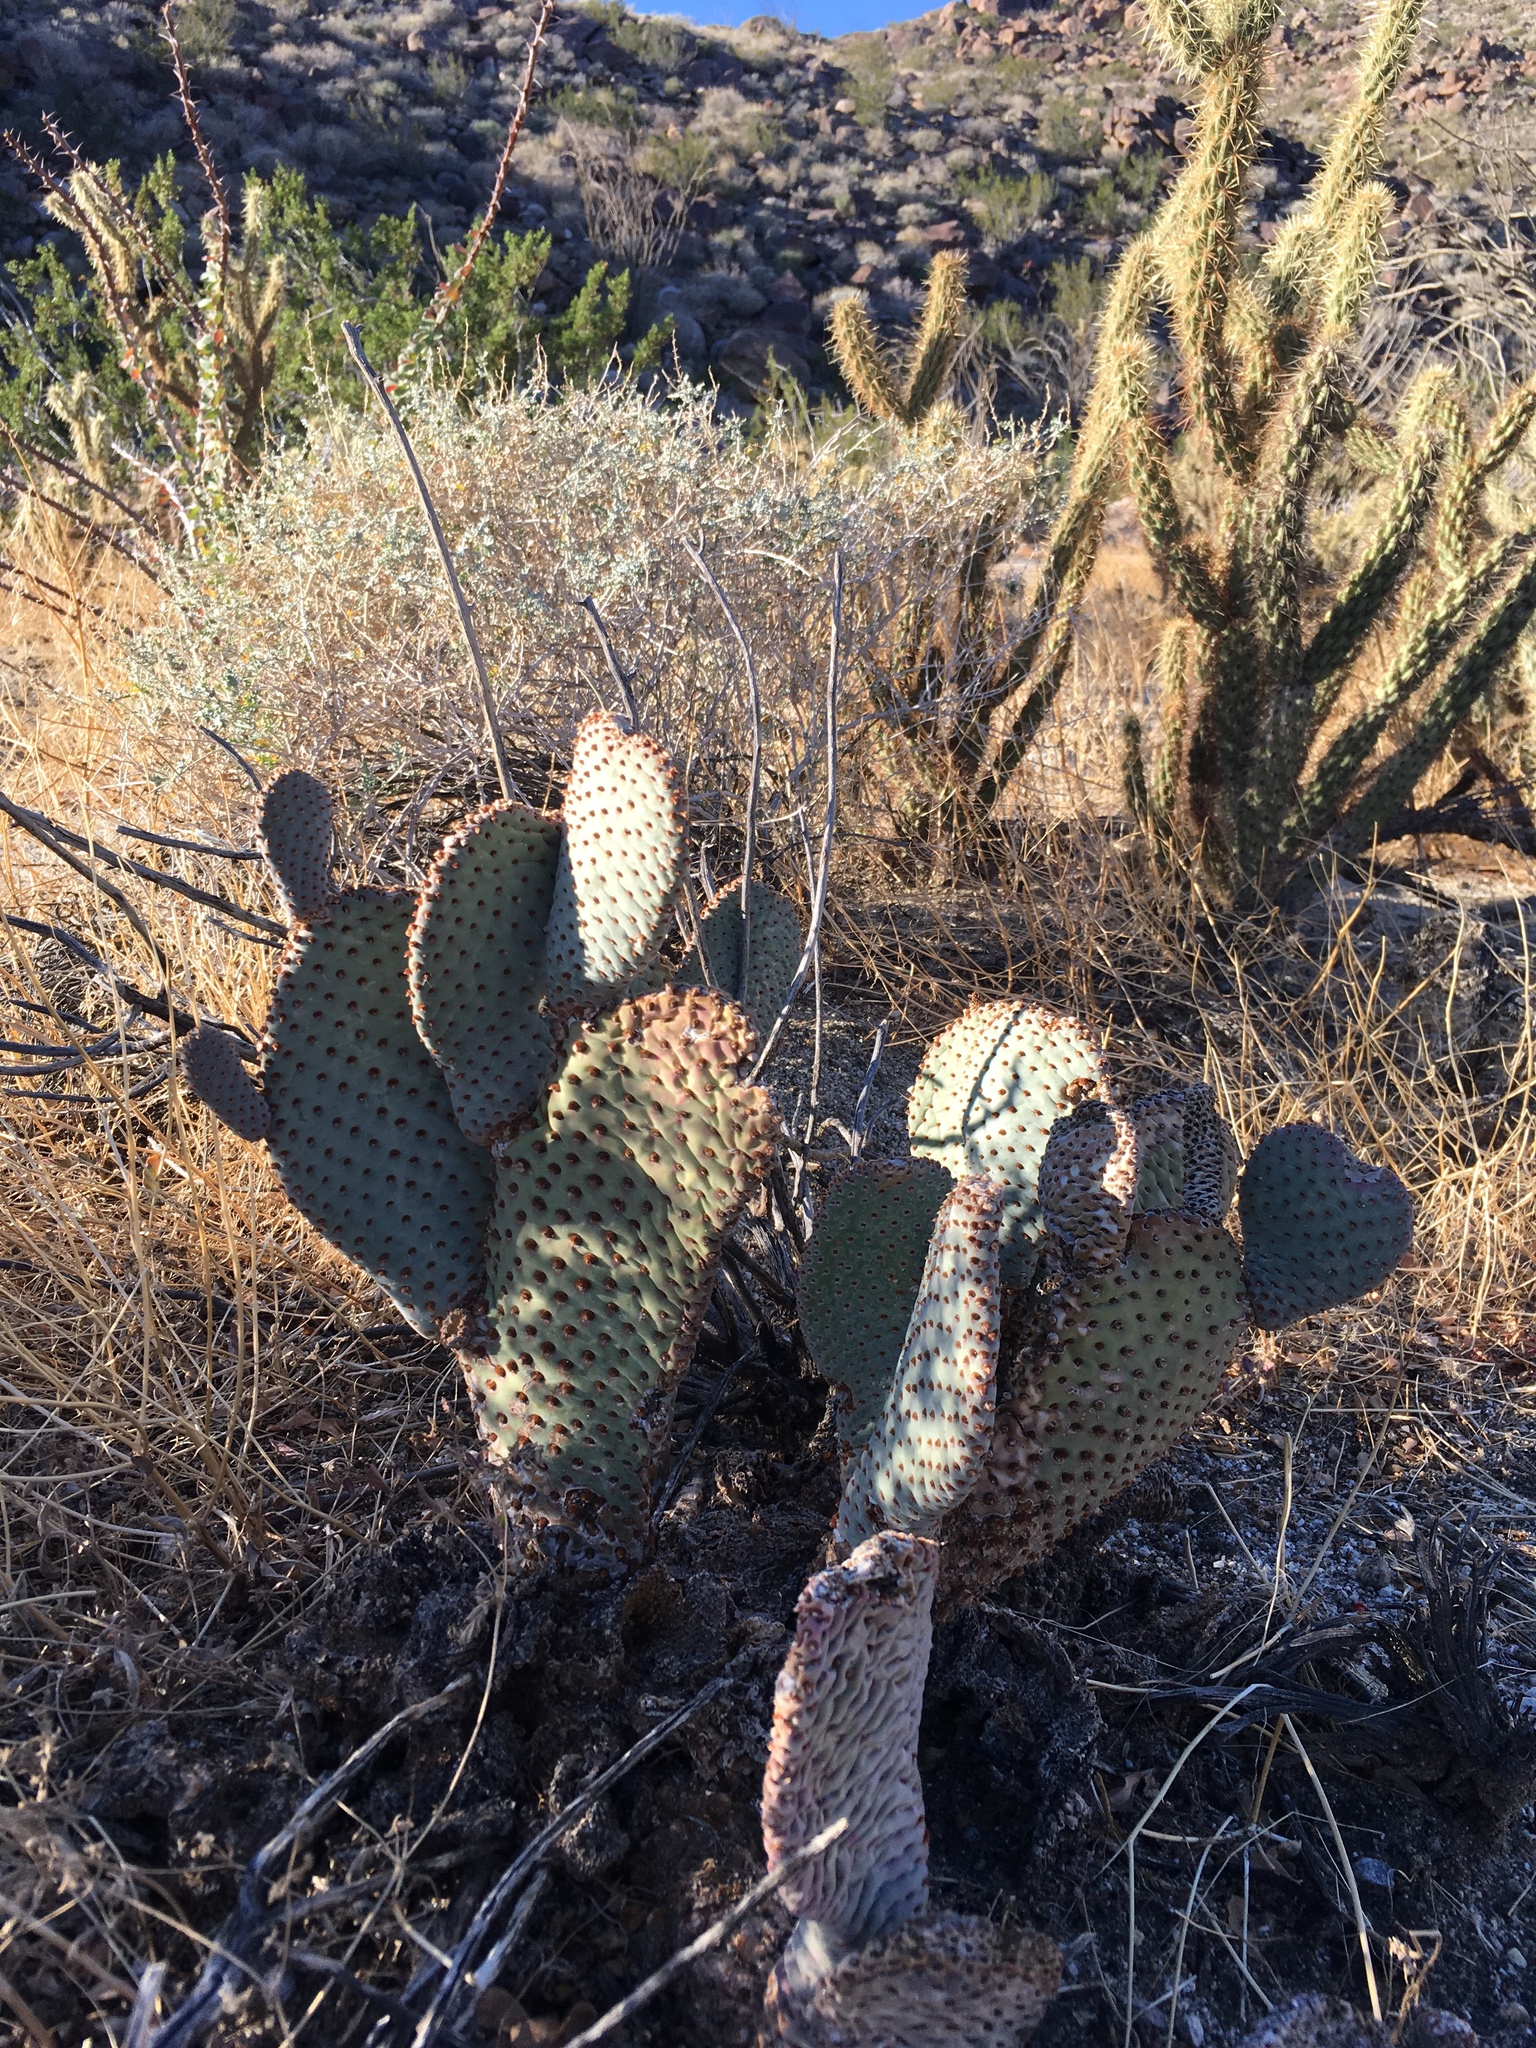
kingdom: Plantae
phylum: Tracheophyta
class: Magnoliopsida
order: Caryophyllales
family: Cactaceae
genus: Opuntia
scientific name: Opuntia basilaris
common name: Beavertail prickly-pear
